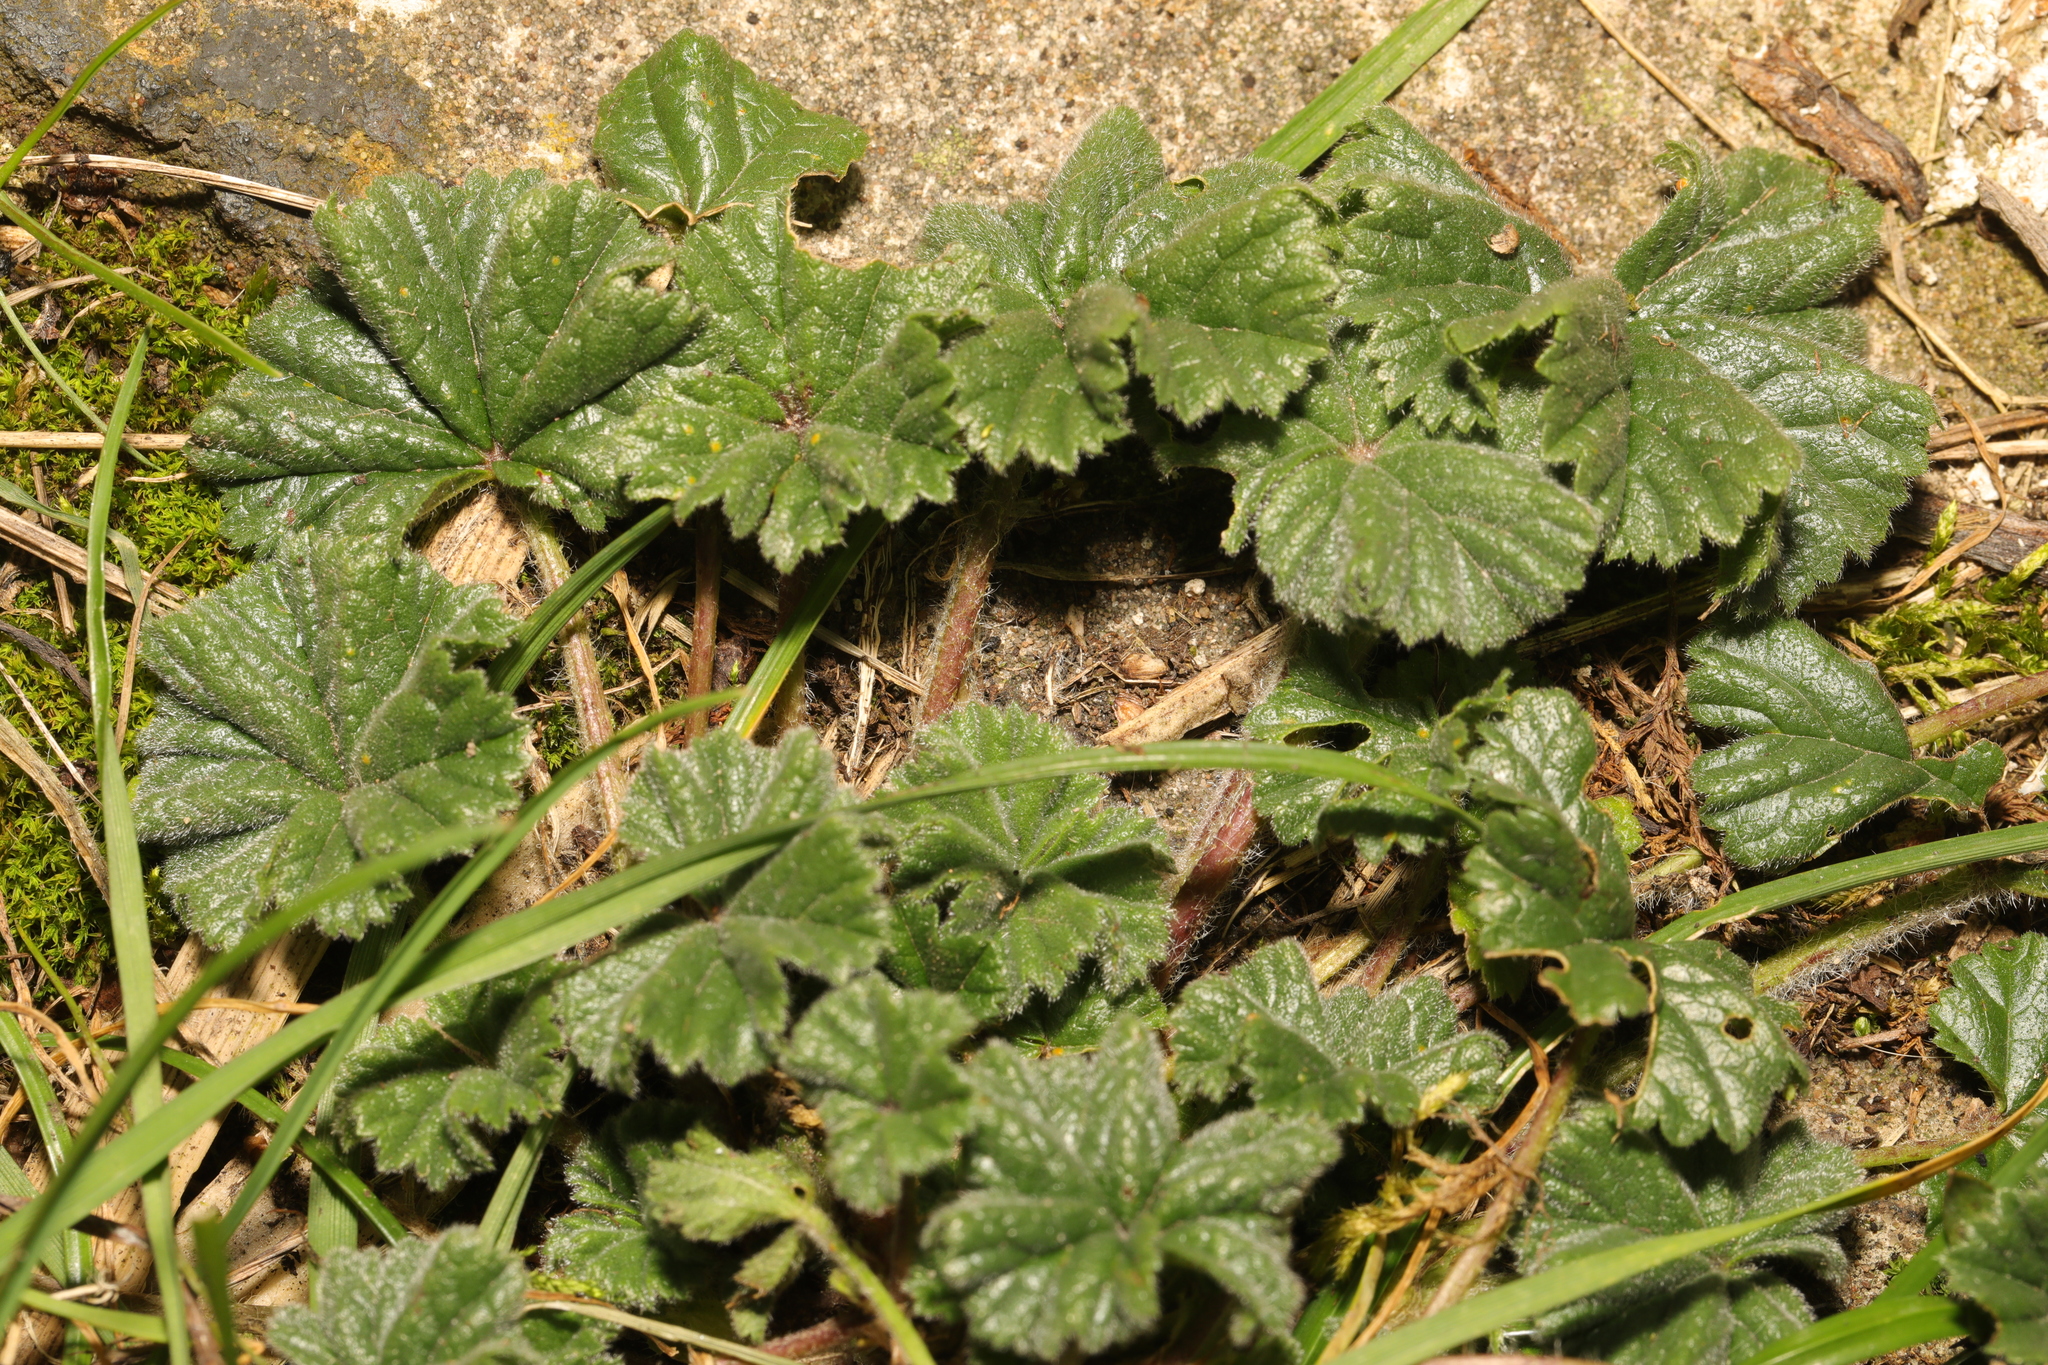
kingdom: Plantae
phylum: Tracheophyta
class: Magnoliopsida
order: Malvales
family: Malvaceae
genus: Malva
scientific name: Malva sylvestris
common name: Common mallow
